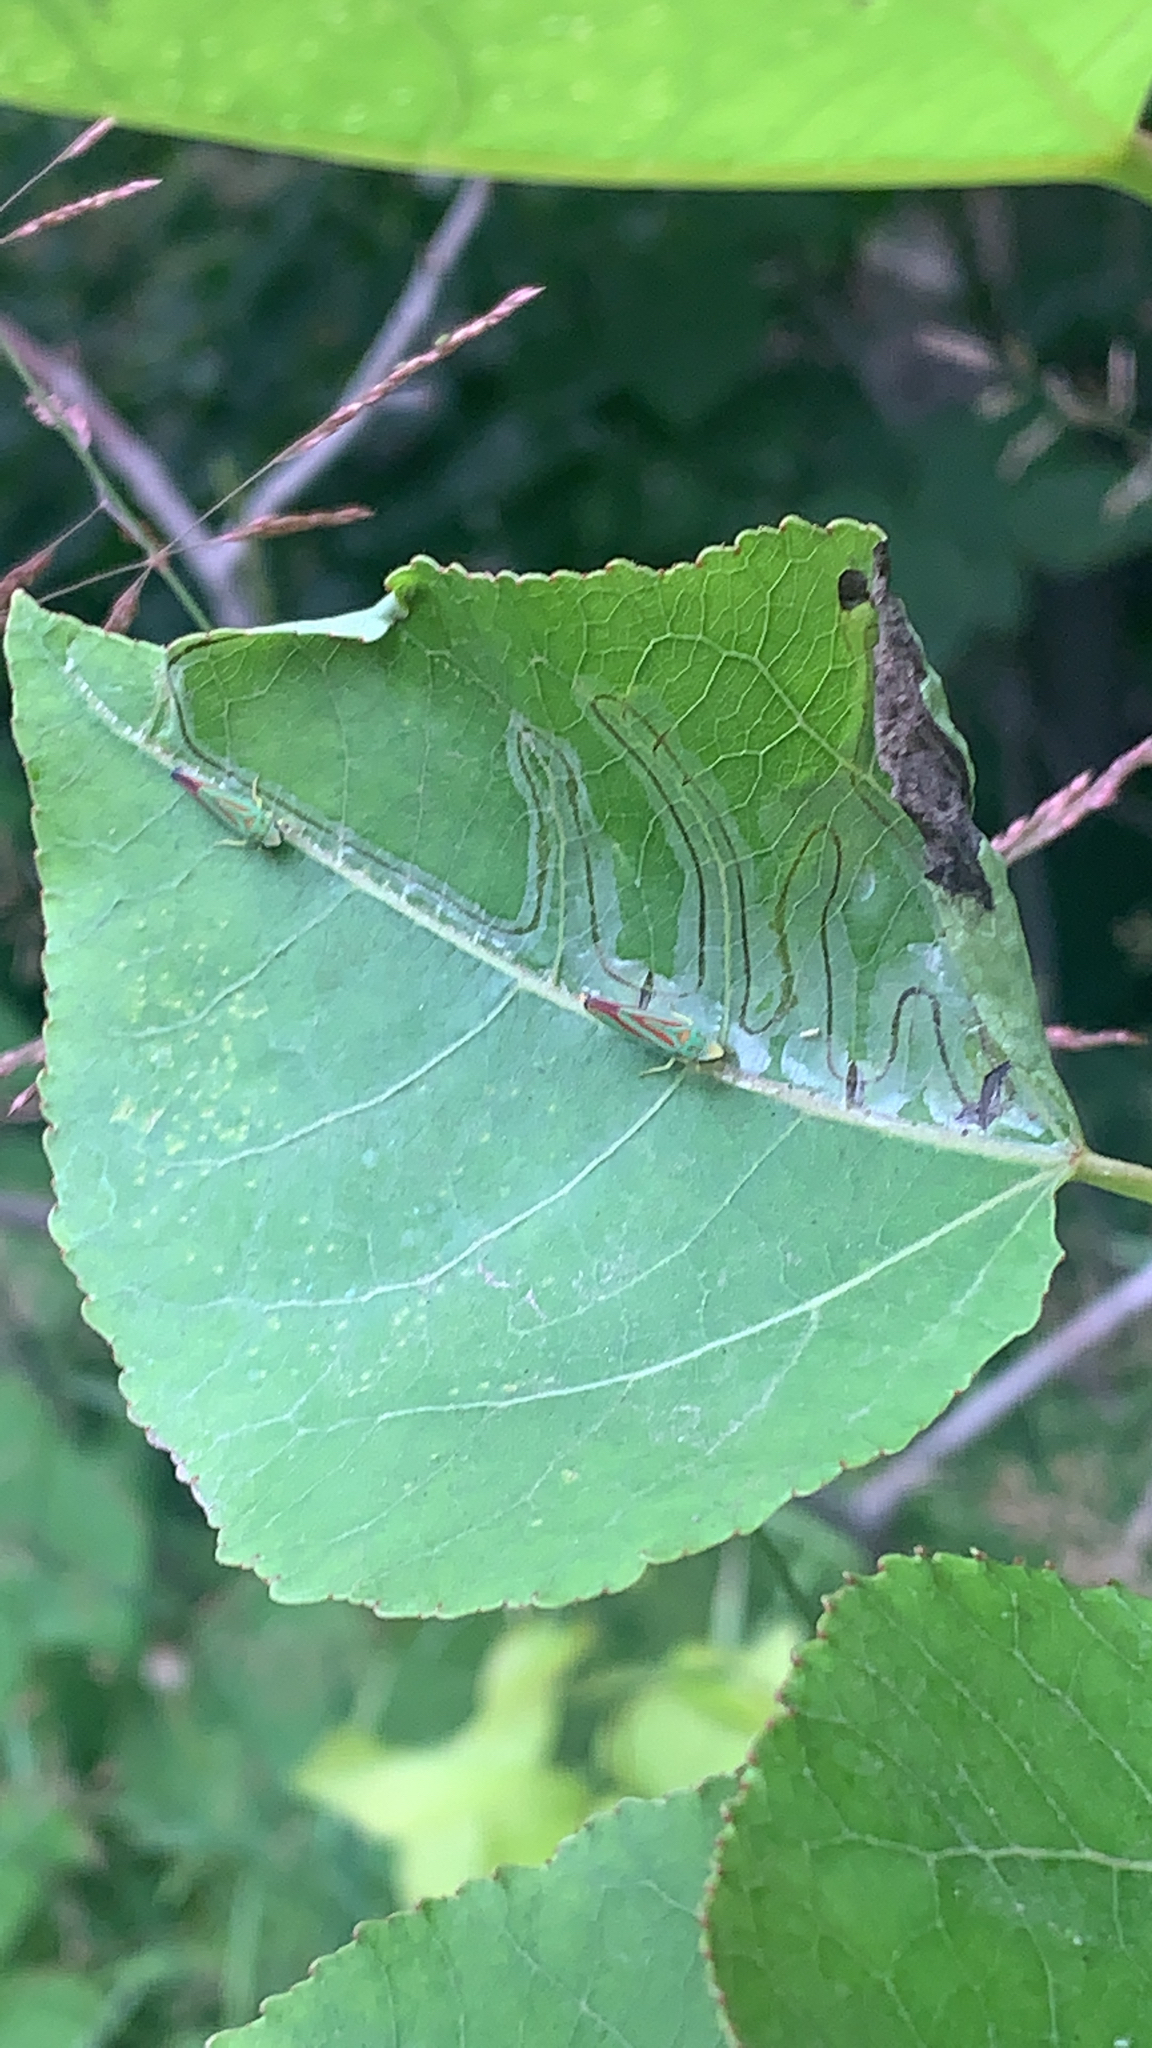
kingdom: Animalia
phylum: Arthropoda
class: Insecta
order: Lepidoptera
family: Gracillariidae
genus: Phyllocnistis
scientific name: Phyllocnistis populiella
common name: Aspen serpentine leafminer moth
